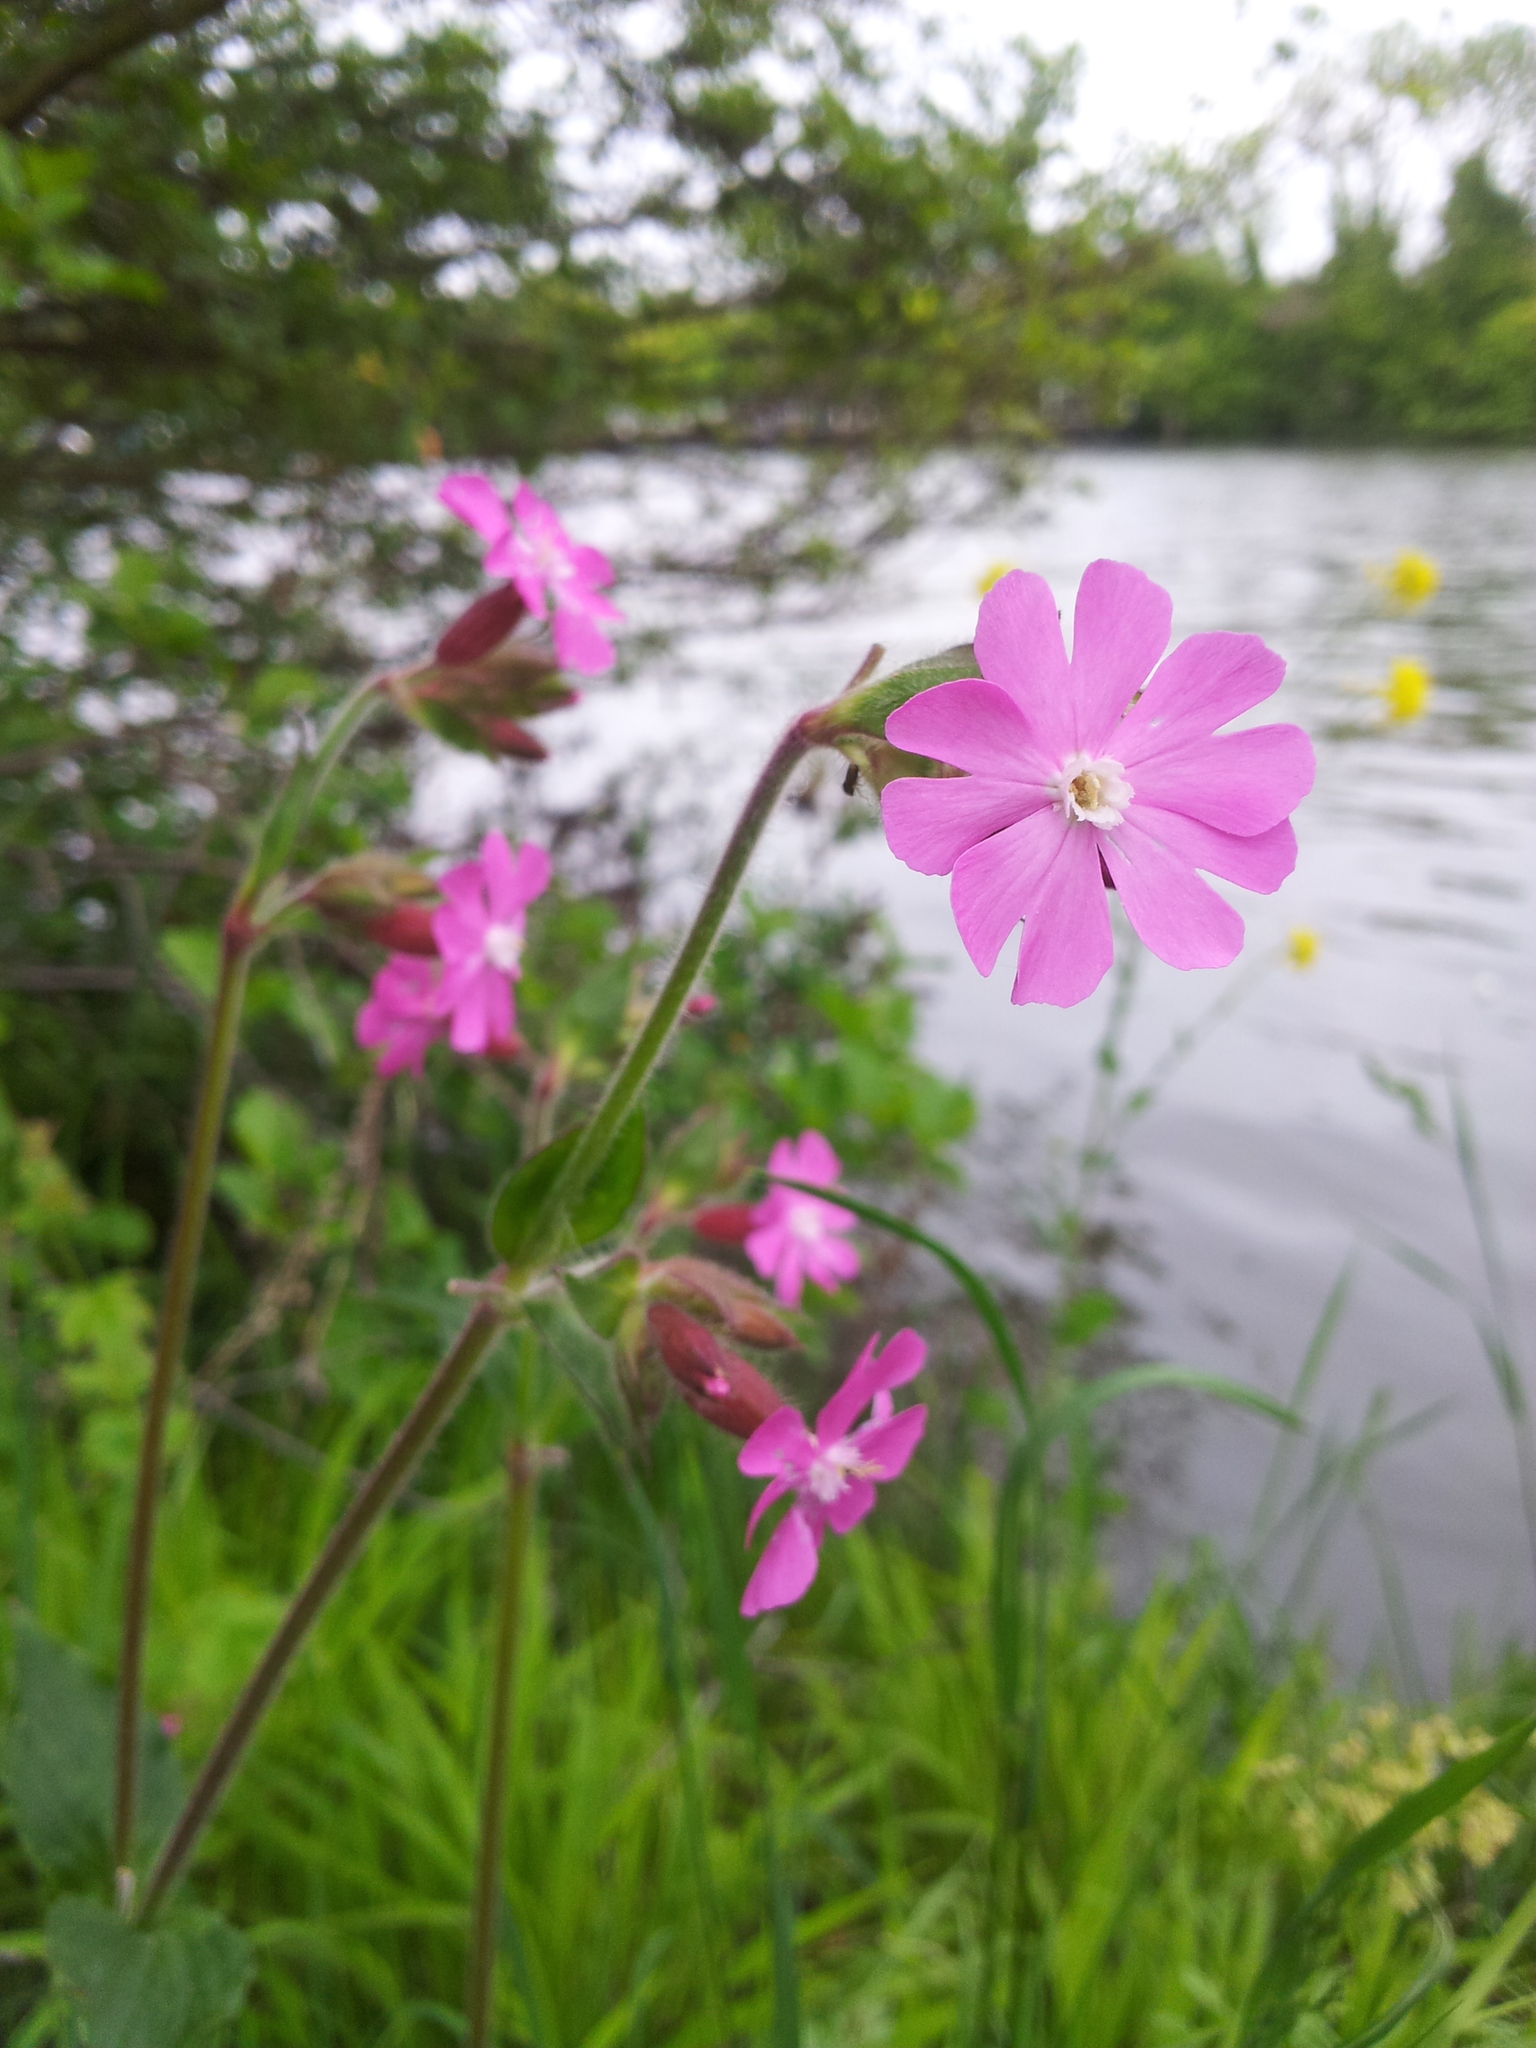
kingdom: Plantae
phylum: Tracheophyta
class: Magnoliopsida
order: Caryophyllales
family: Caryophyllaceae
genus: Silene
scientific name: Silene dioica
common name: Red campion
